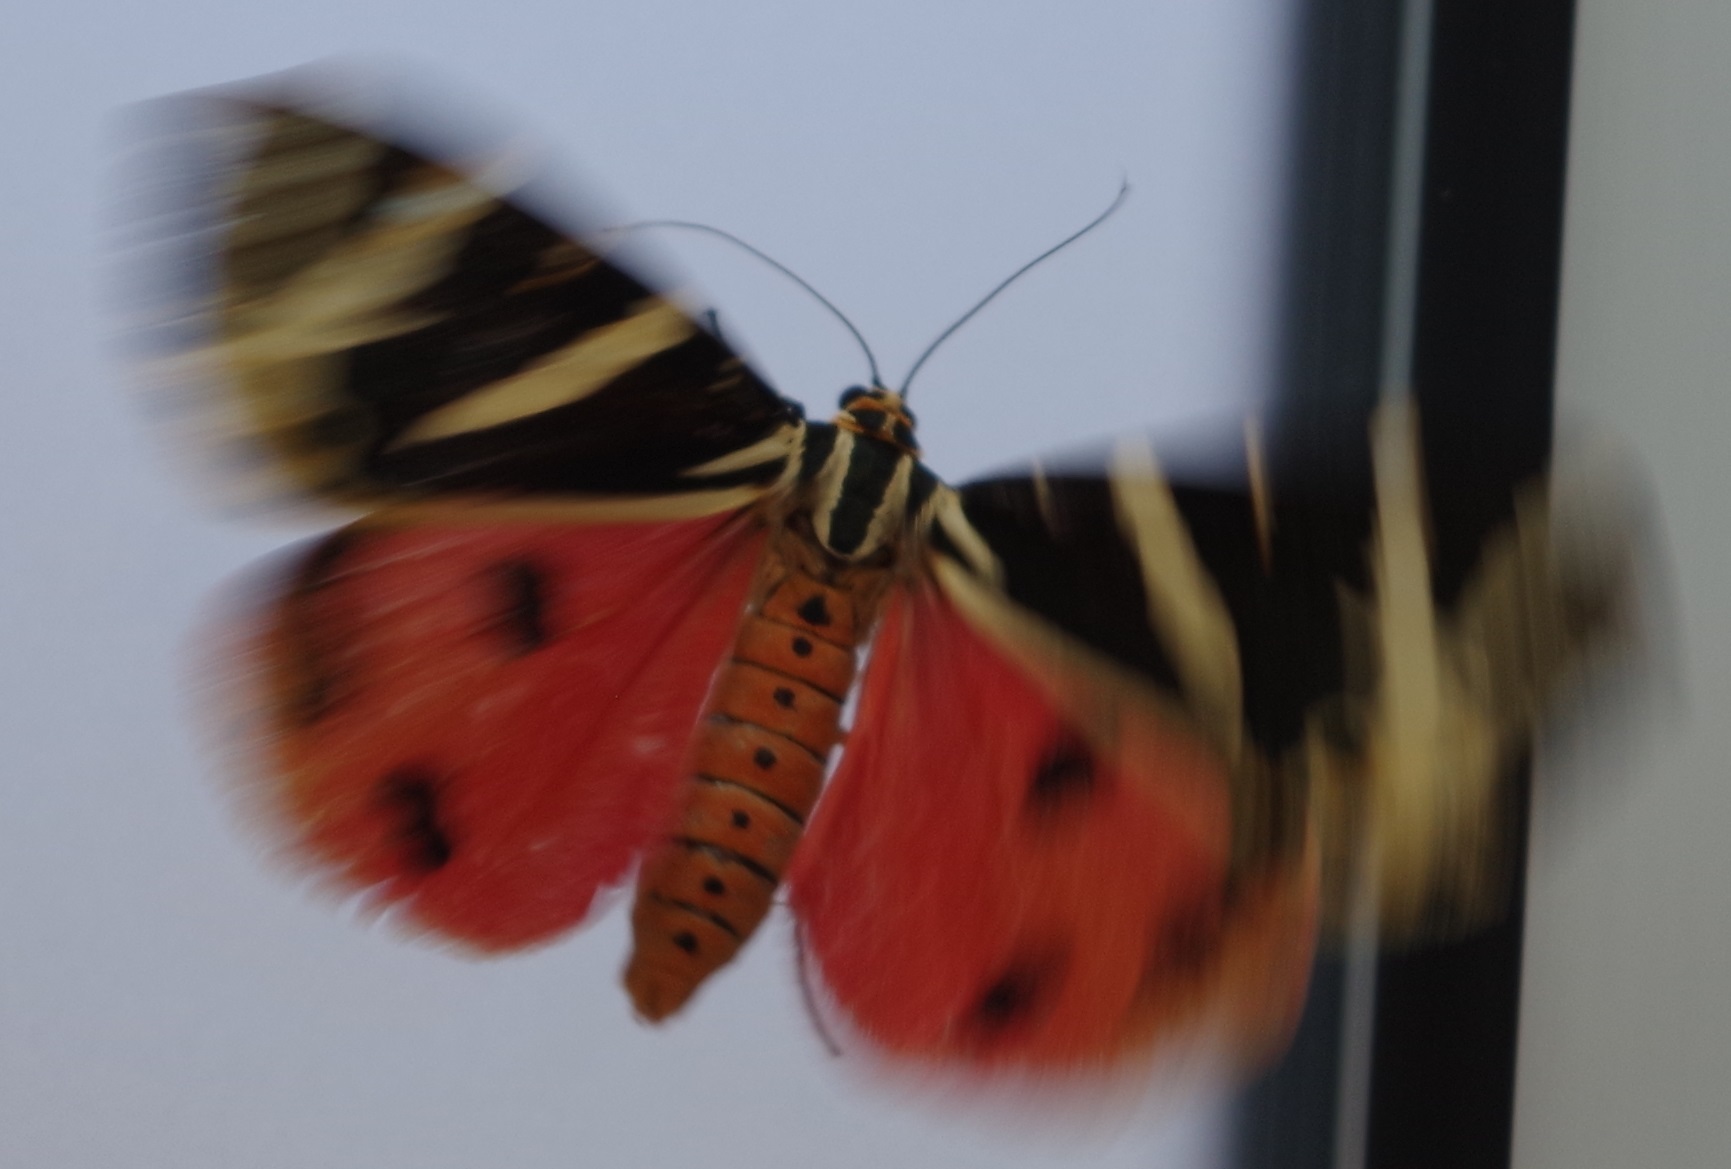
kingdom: Animalia
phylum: Arthropoda
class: Insecta
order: Lepidoptera
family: Erebidae
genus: Euplagia
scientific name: Euplagia quadripunctaria
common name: Jersey tiger
